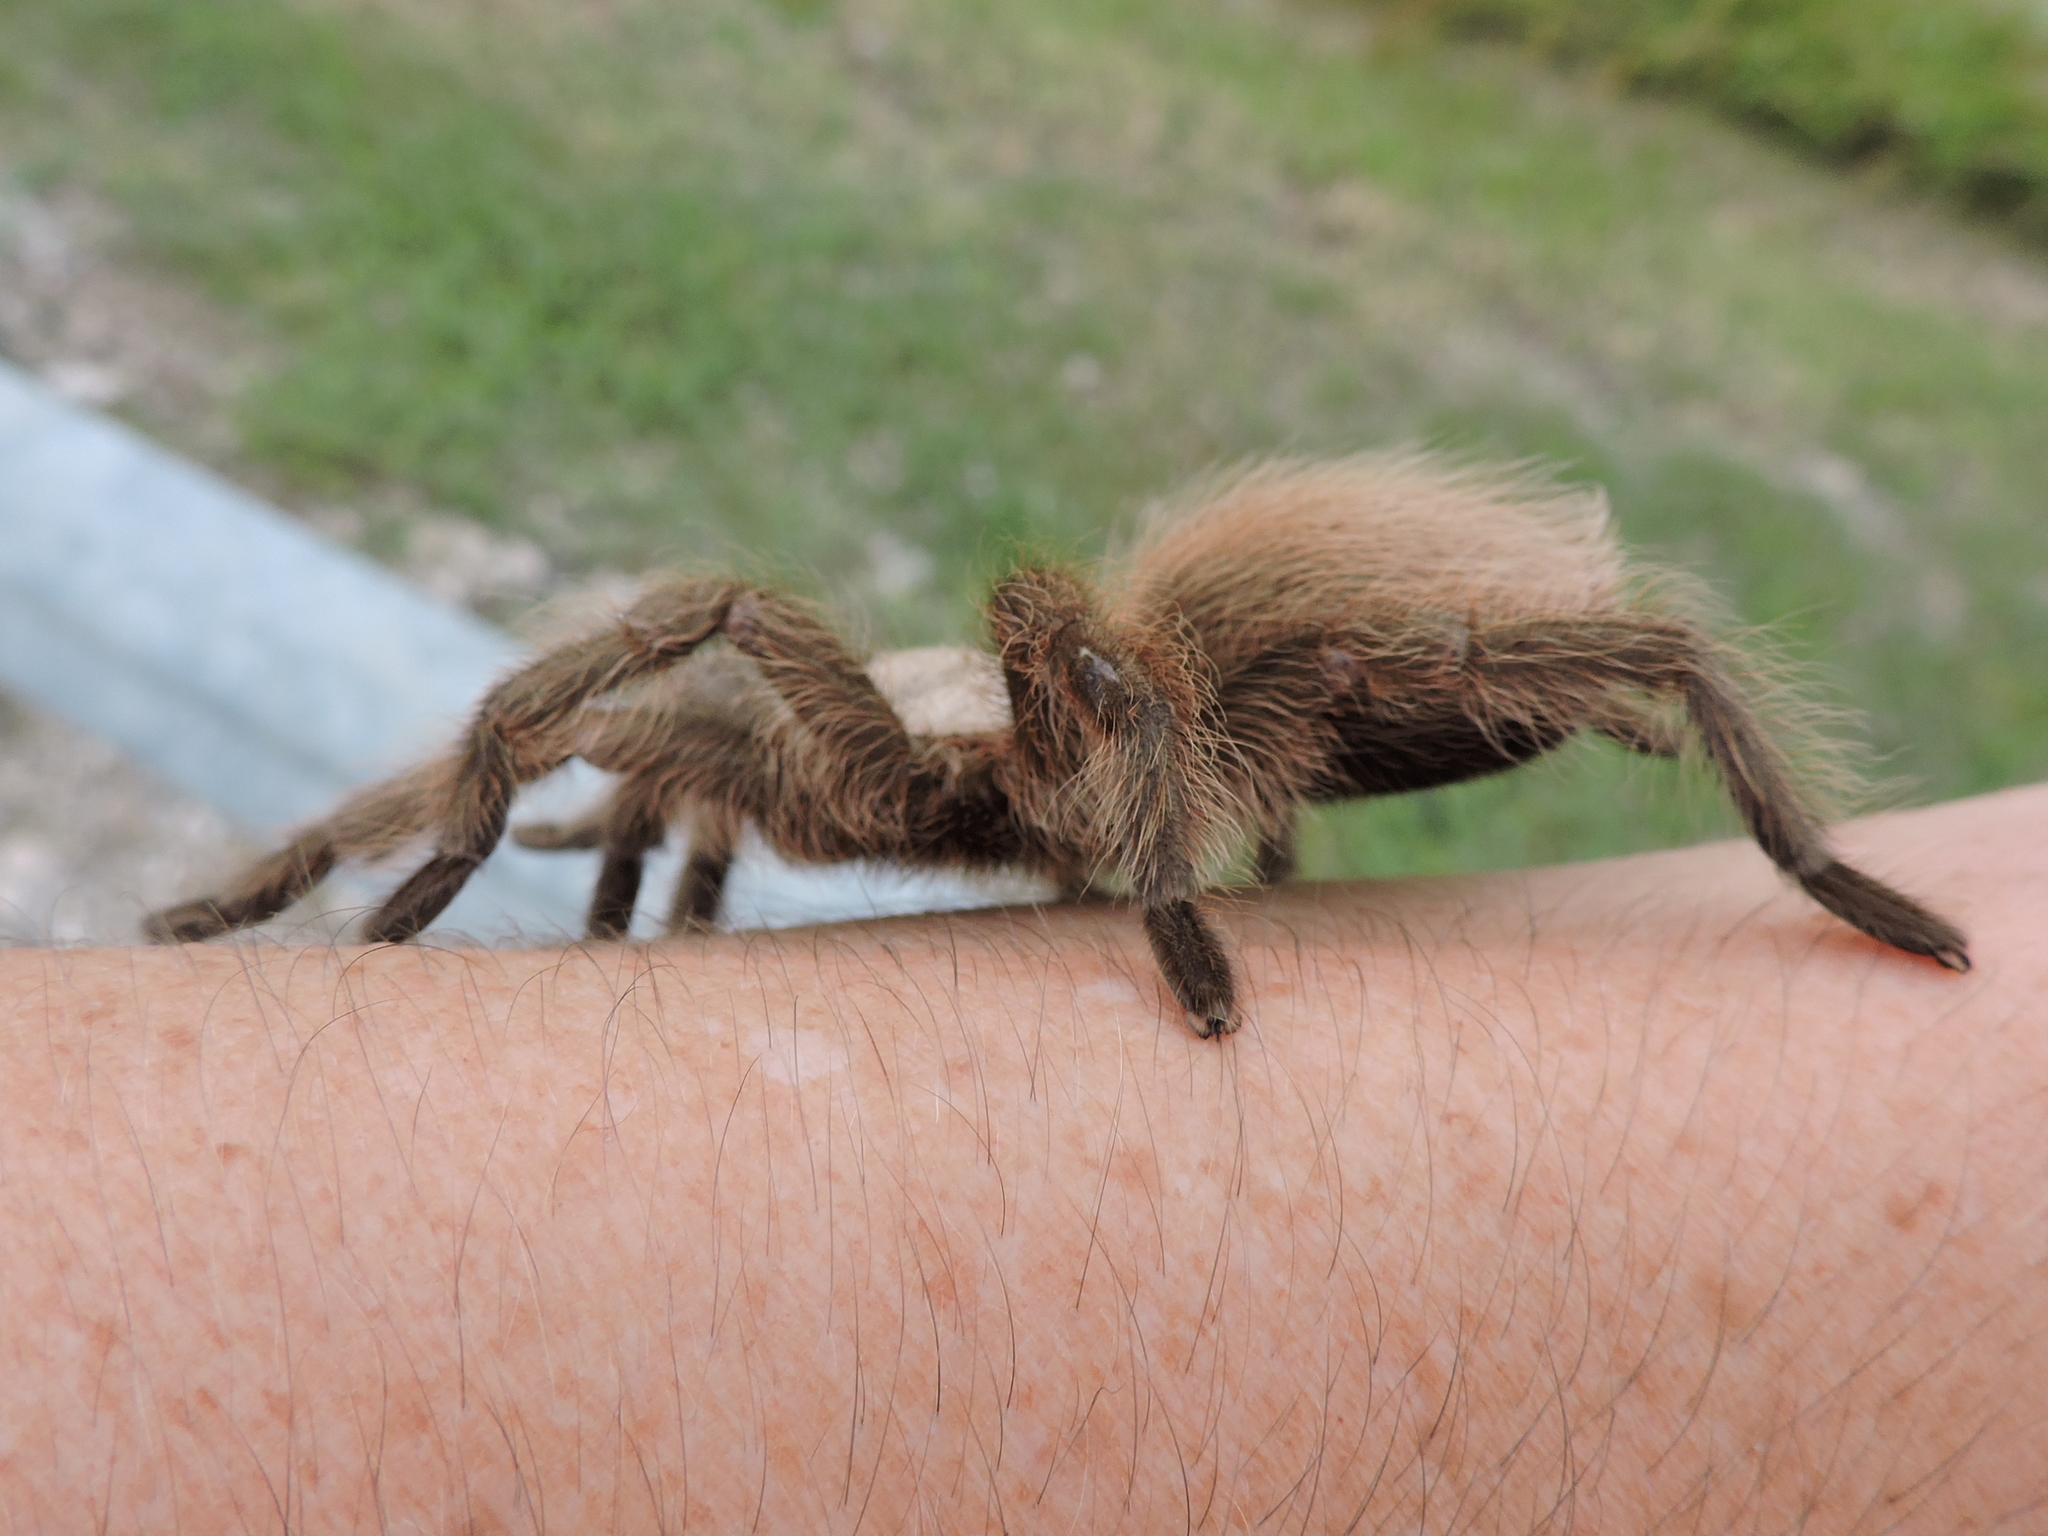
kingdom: Animalia
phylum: Arthropoda
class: Arachnida
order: Araneae
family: Theraphosidae
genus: Aphonopelma
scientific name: Aphonopelma hentzi
